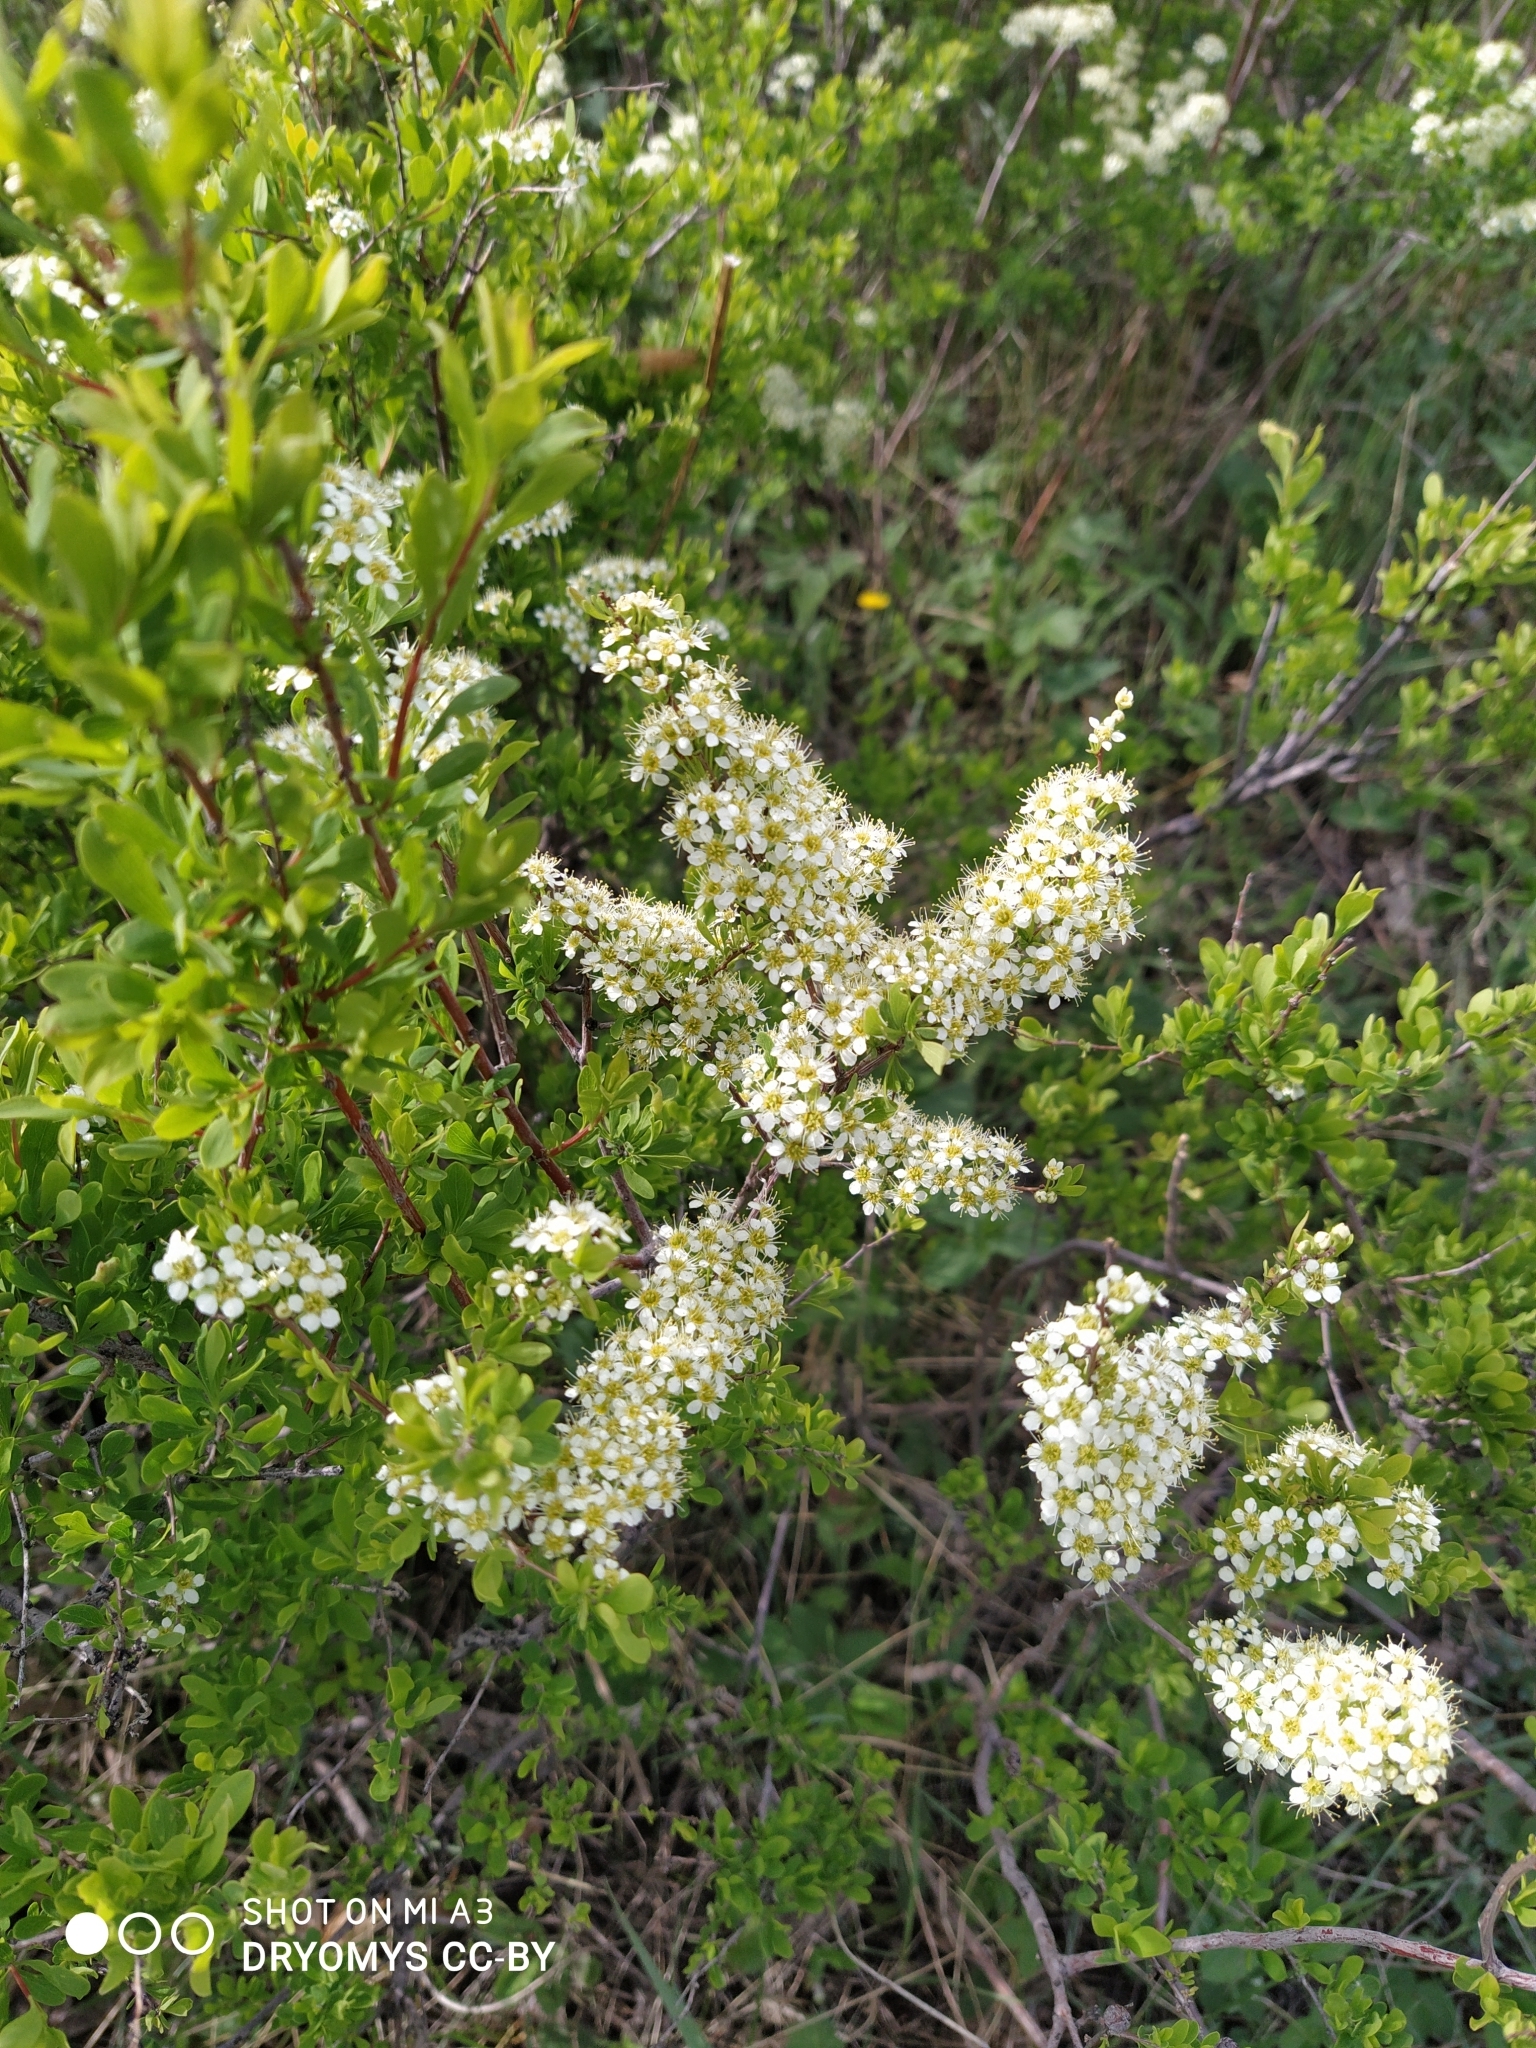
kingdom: Plantae
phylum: Tracheophyta
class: Magnoliopsida
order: Rosales
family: Rosaceae
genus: Spiraea
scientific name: Spiraea hypericifolia
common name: Iberian spirea
